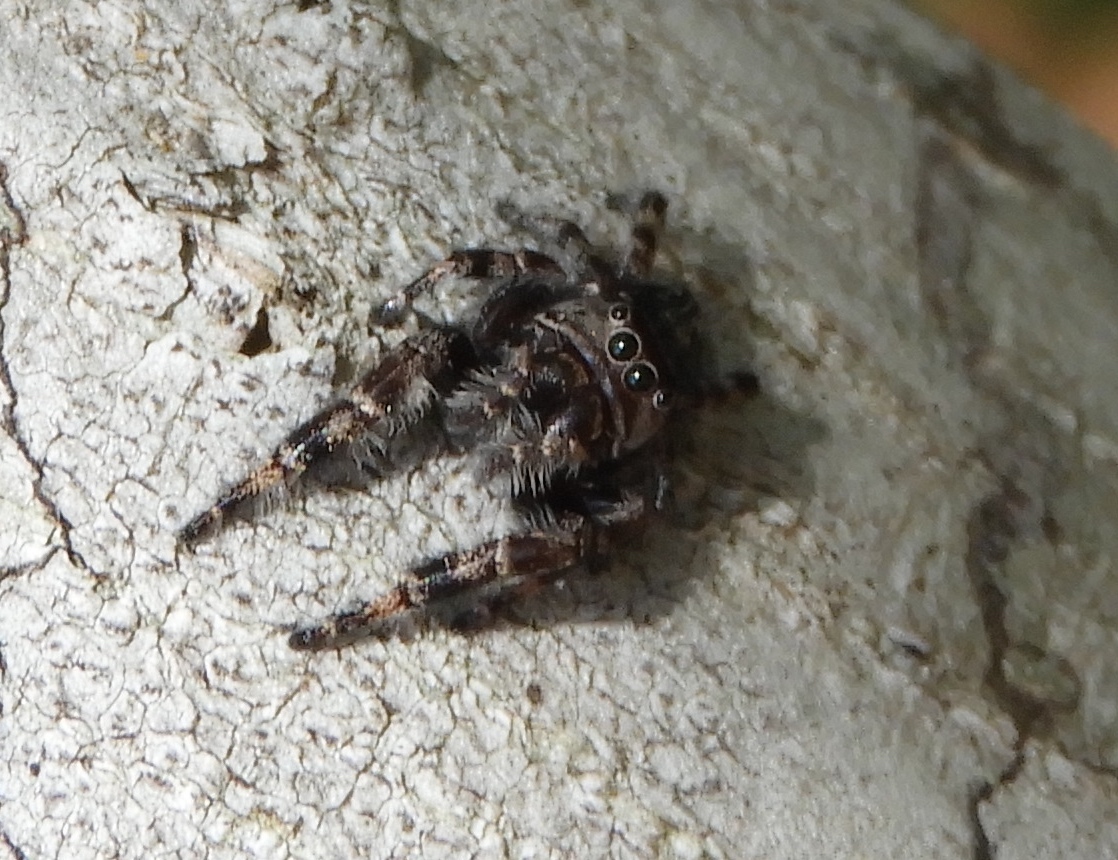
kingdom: Animalia
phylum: Arthropoda
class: Arachnida
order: Araneae
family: Salticidae
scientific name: Salticidae
